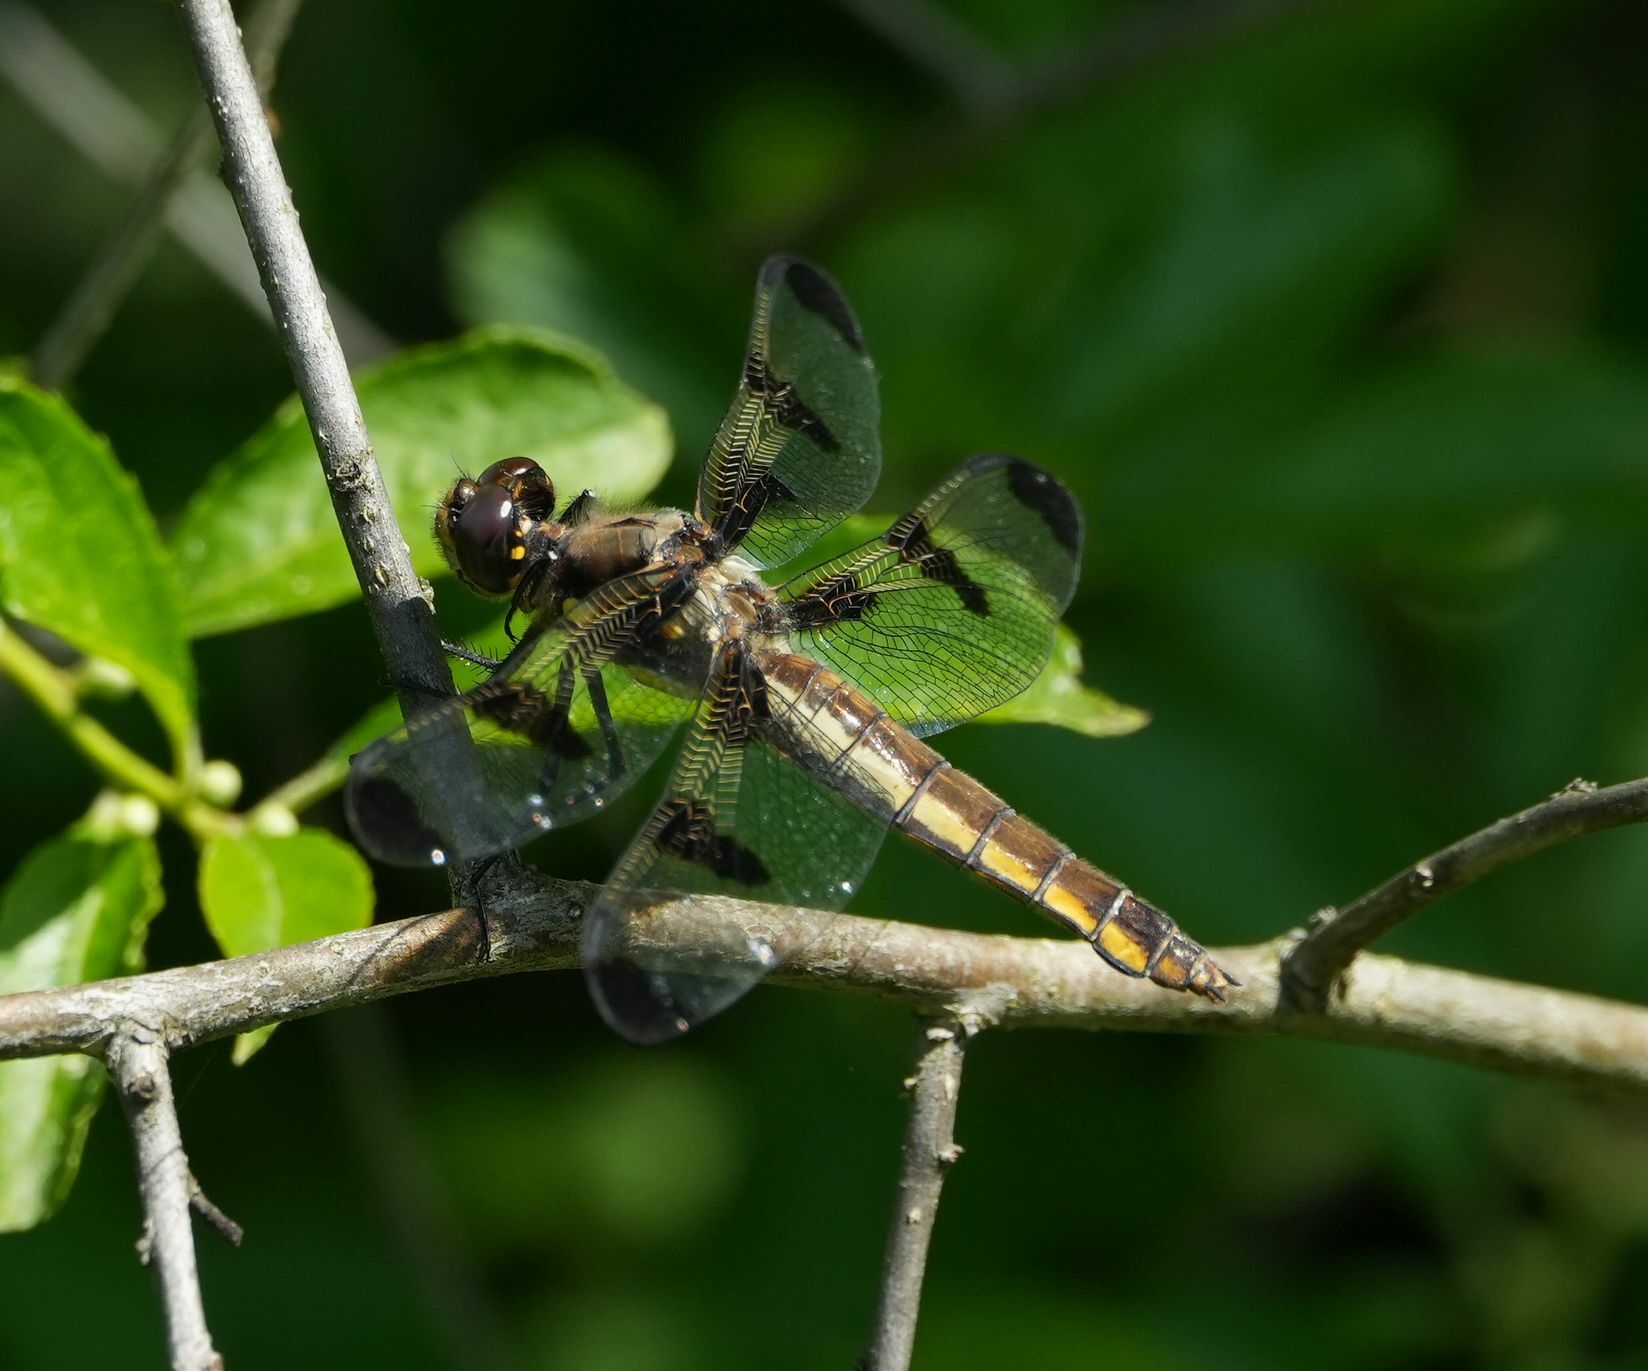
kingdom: Animalia
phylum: Arthropoda
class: Insecta
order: Odonata
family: Libellulidae
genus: Libellula
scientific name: Libellula pulchella
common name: Twelve-spotted skimmer
